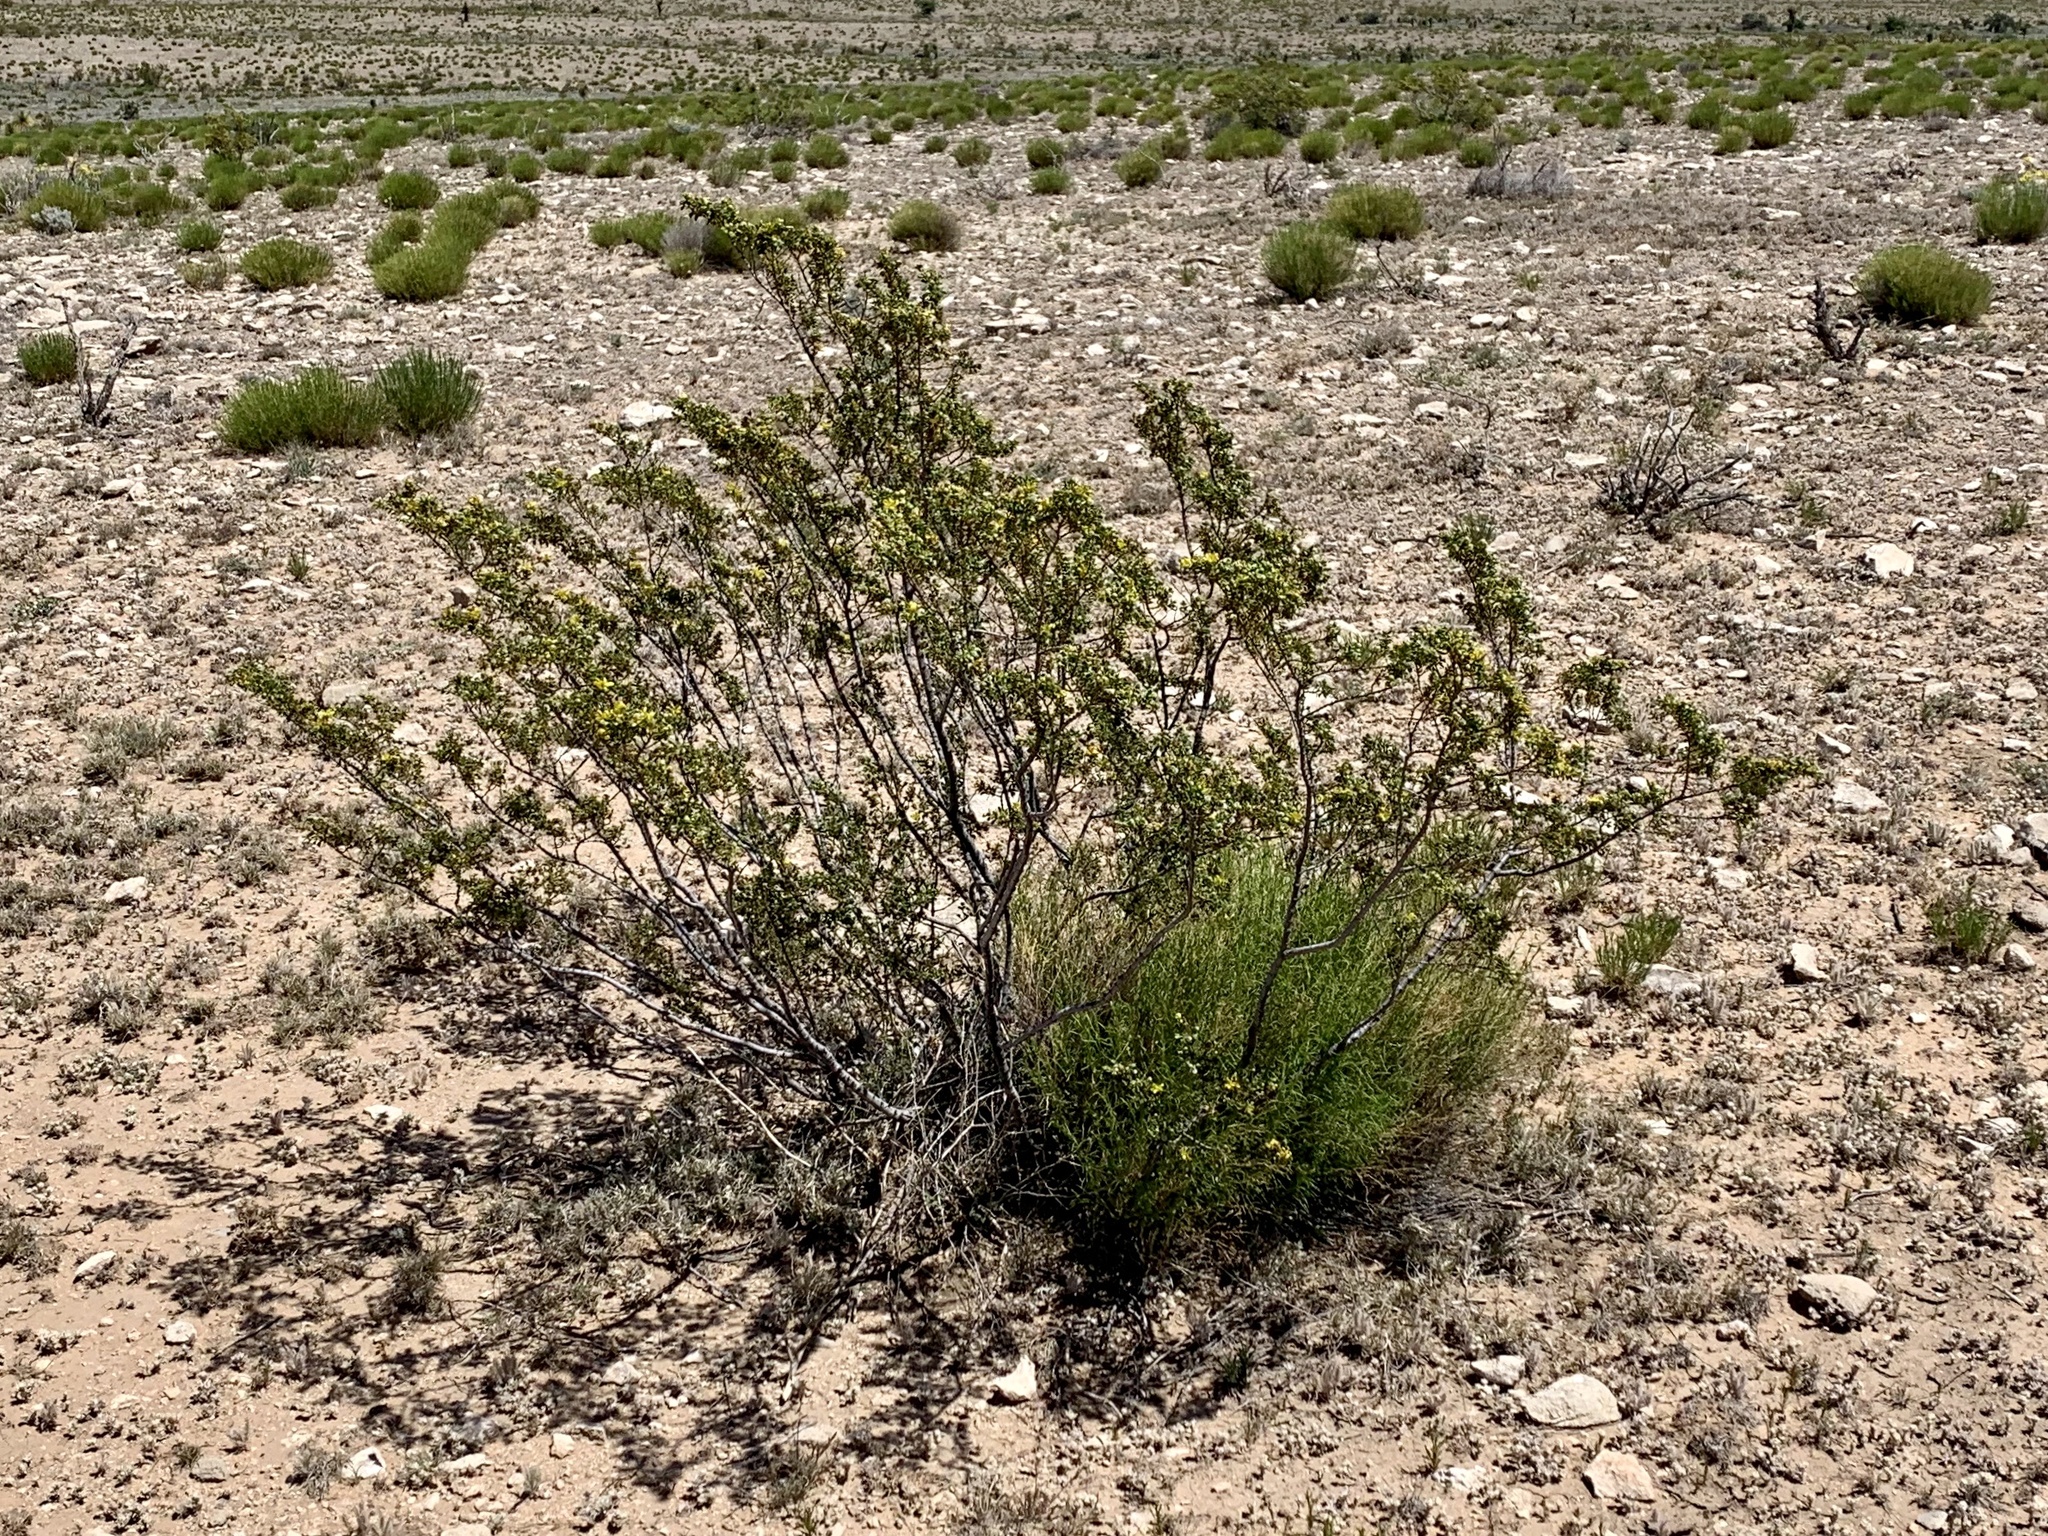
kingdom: Plantae
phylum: Tracheophyta
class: Magnoliopsida
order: Zygophyllales
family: Zygophyllaceae
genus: Larrea
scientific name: Larrea tridentata
